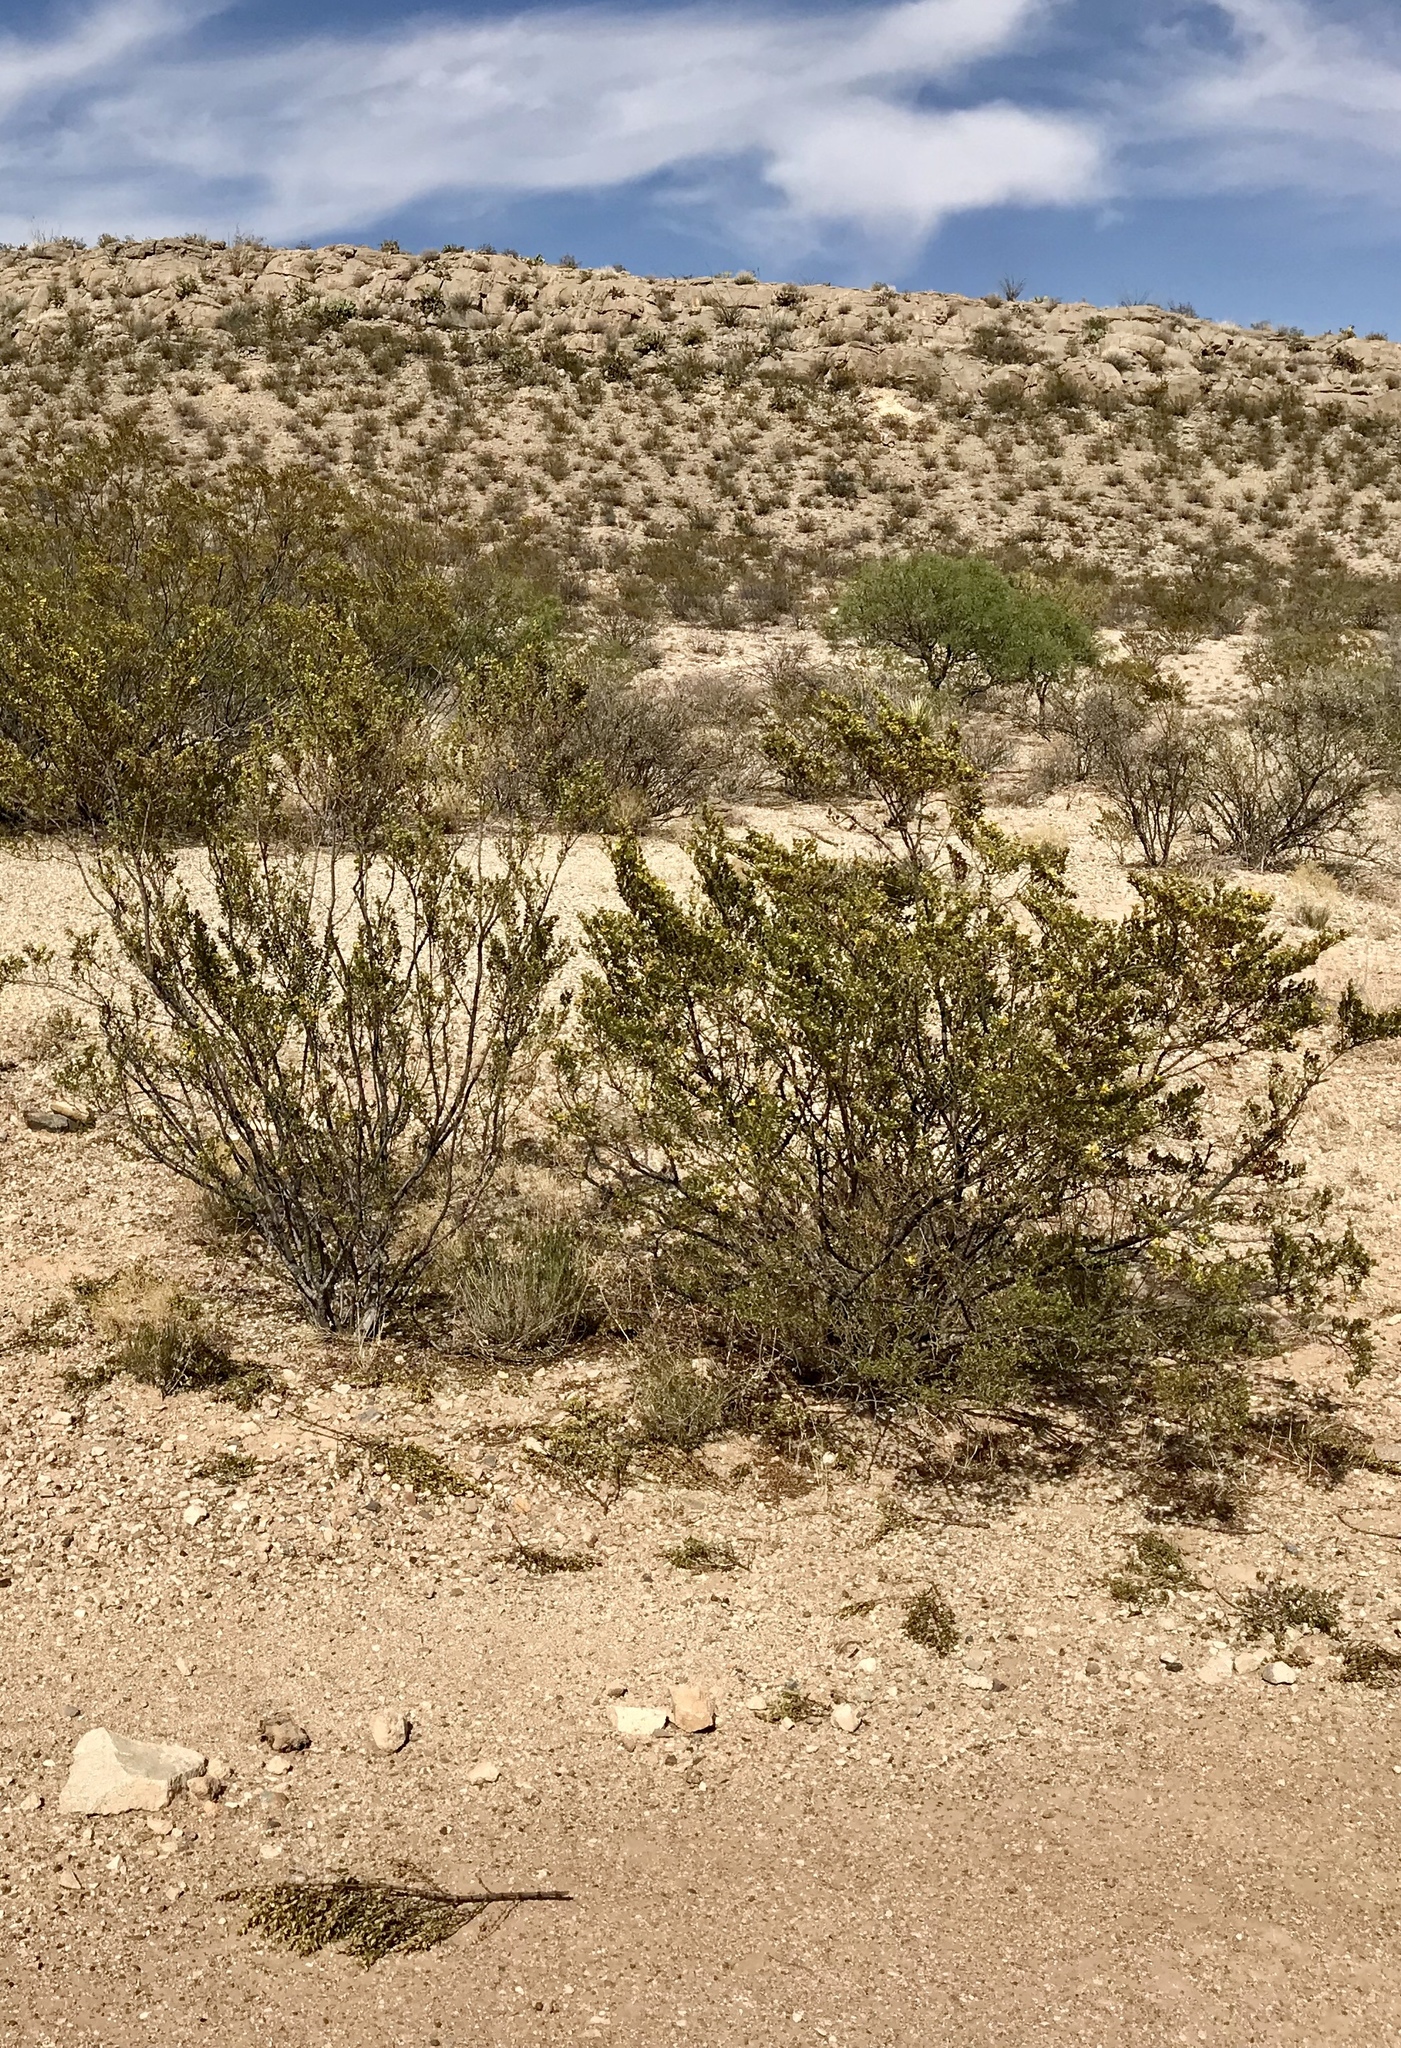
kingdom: Plantae
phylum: Tracheophyta
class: Magnoliopsida
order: Zygophyllales
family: Zygophyllaceae
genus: Larrea
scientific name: Larrea tridentata
